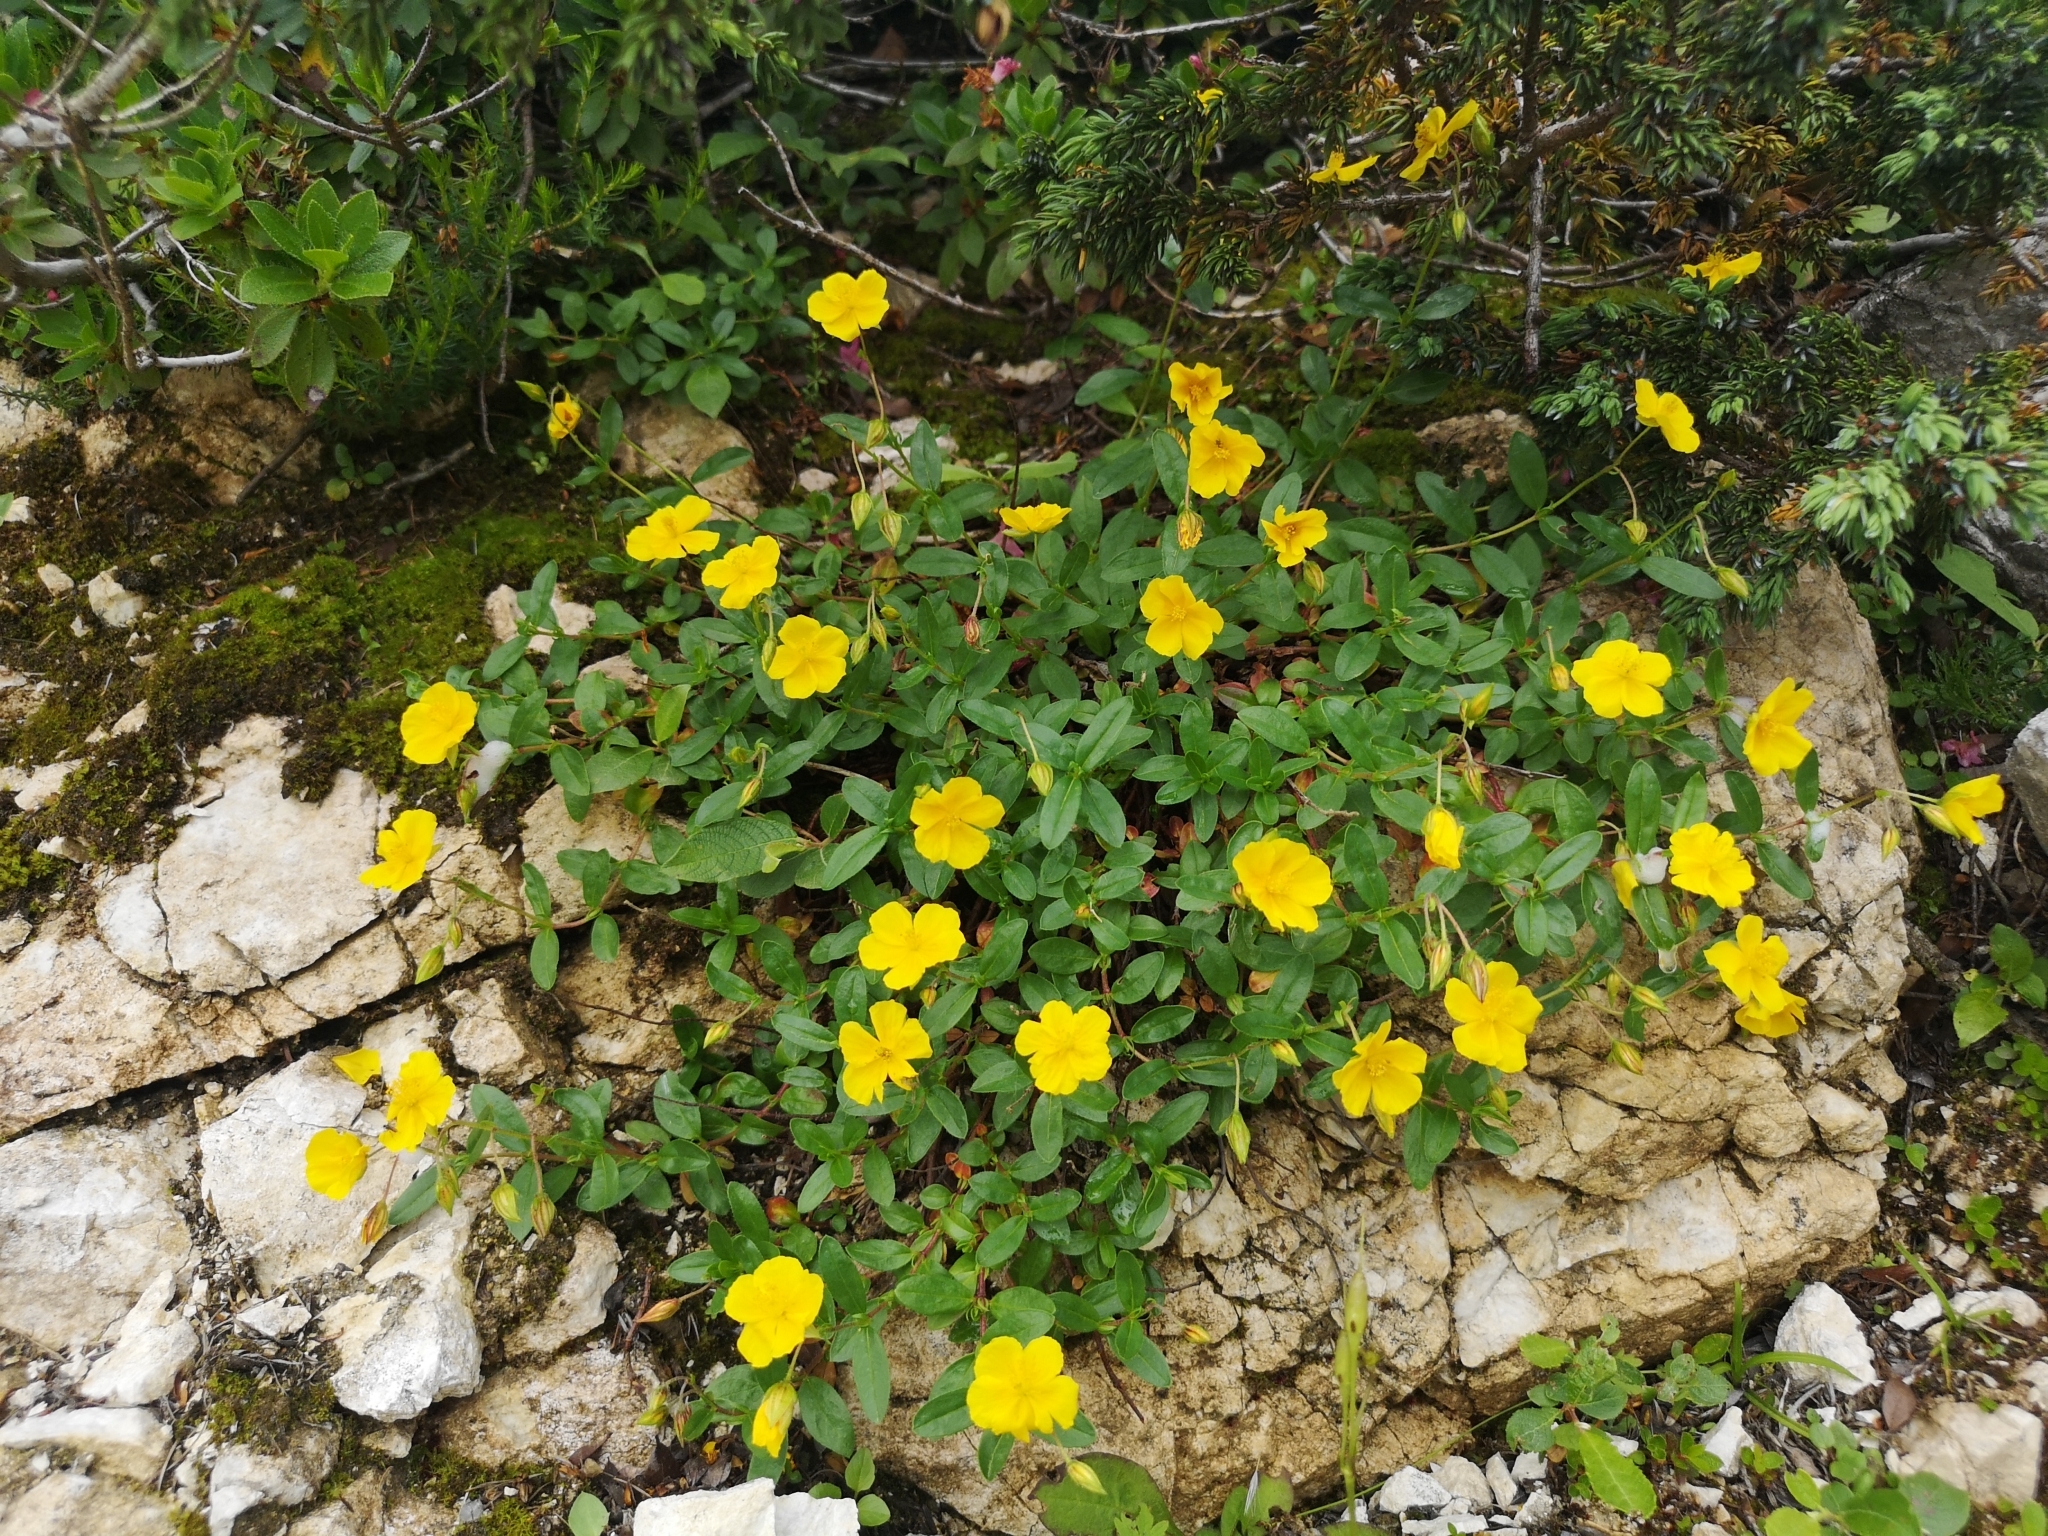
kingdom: Plantae
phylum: Tracheophyta
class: Magnoliopsida
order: Malvales
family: Cistaceae
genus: Helianthemum
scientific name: Helianthemum nummularium
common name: Common rock-rose
